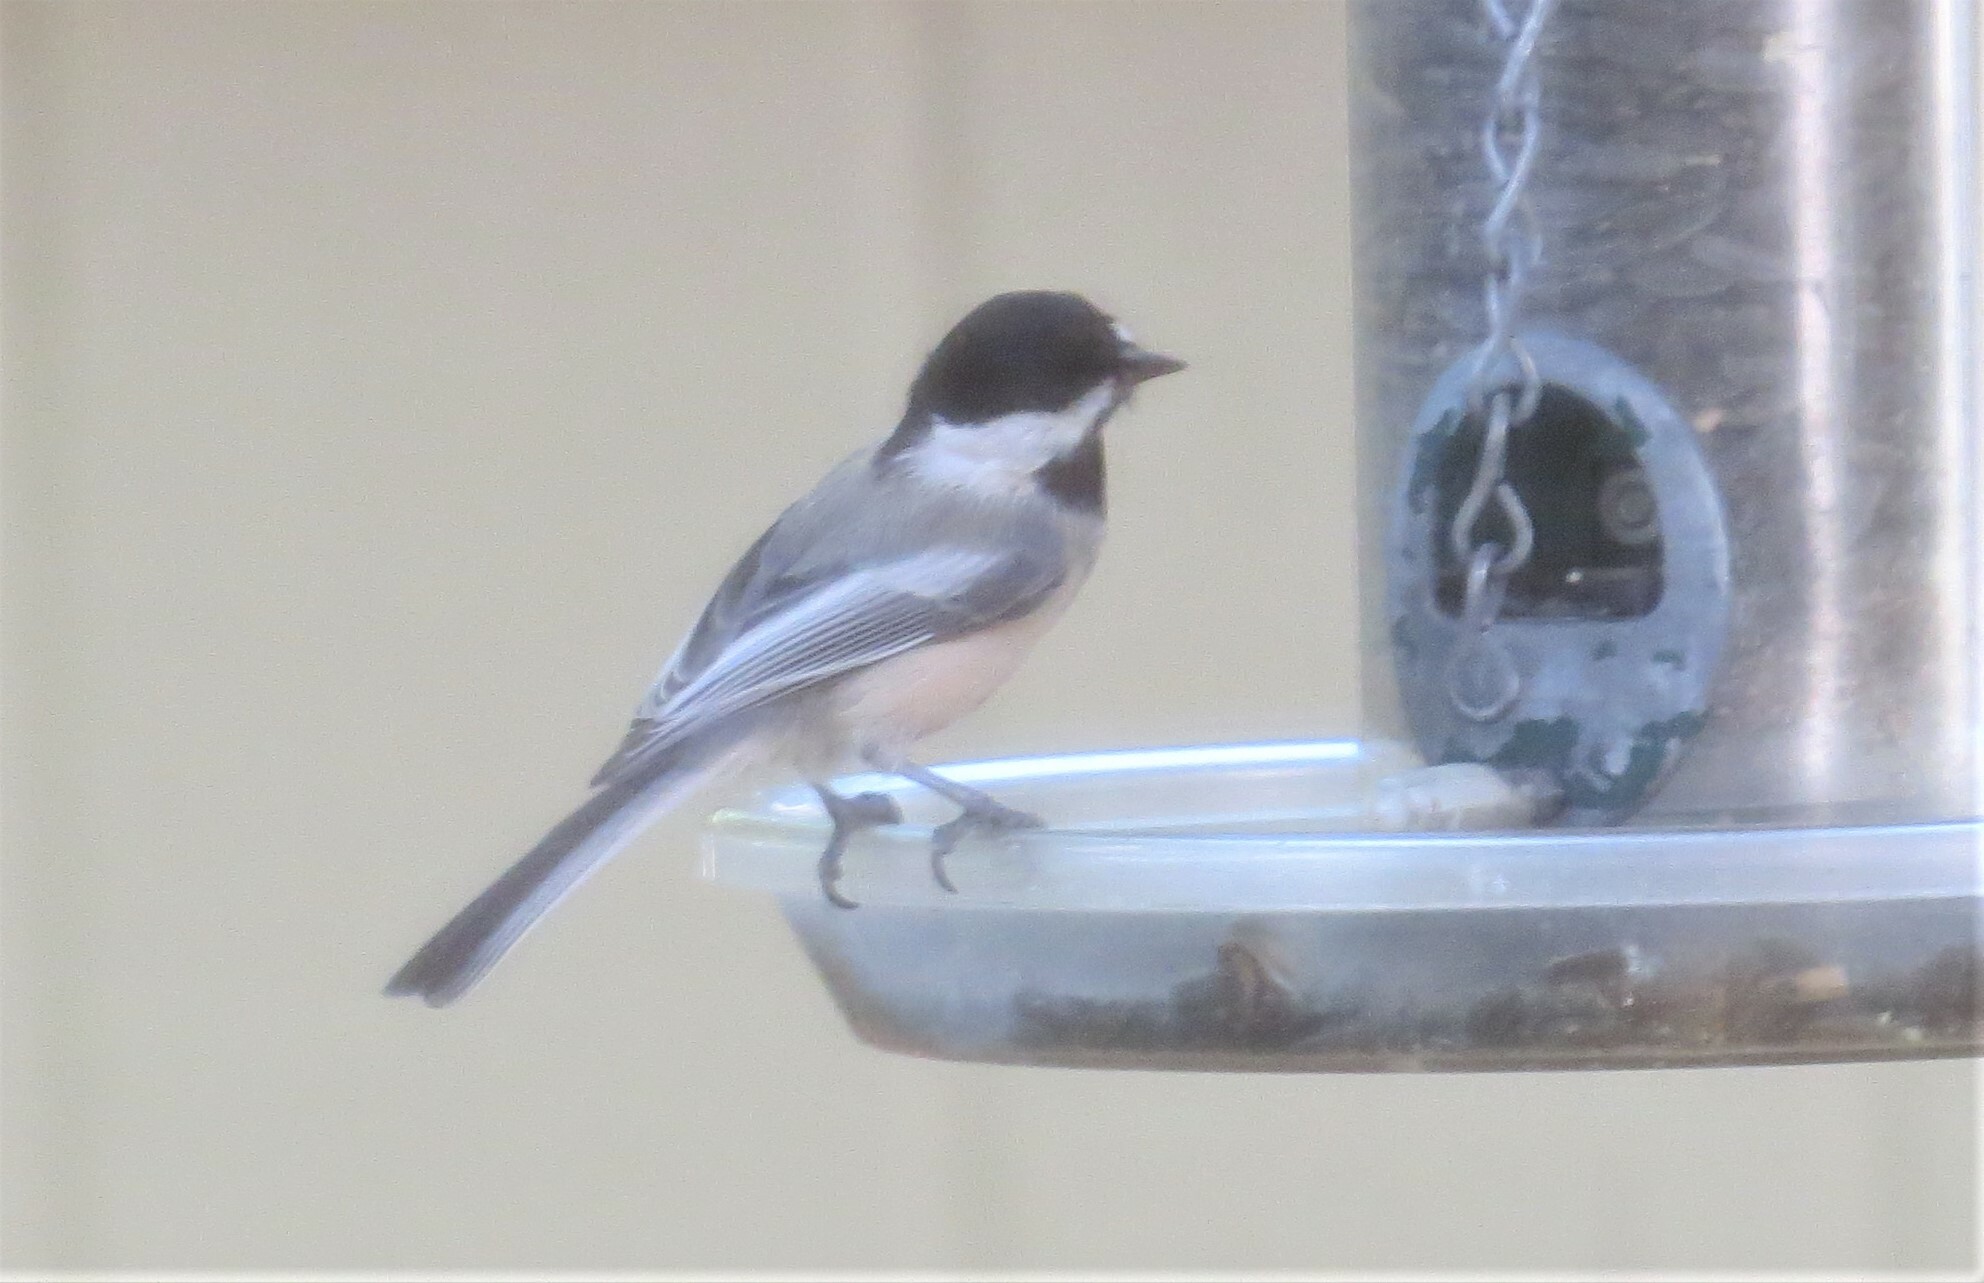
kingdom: Animalia
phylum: Chordata
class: Aves
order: Passeriformes
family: Paridae
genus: Poecile
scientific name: Poecile atricapillus
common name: Black-capped chickadee
